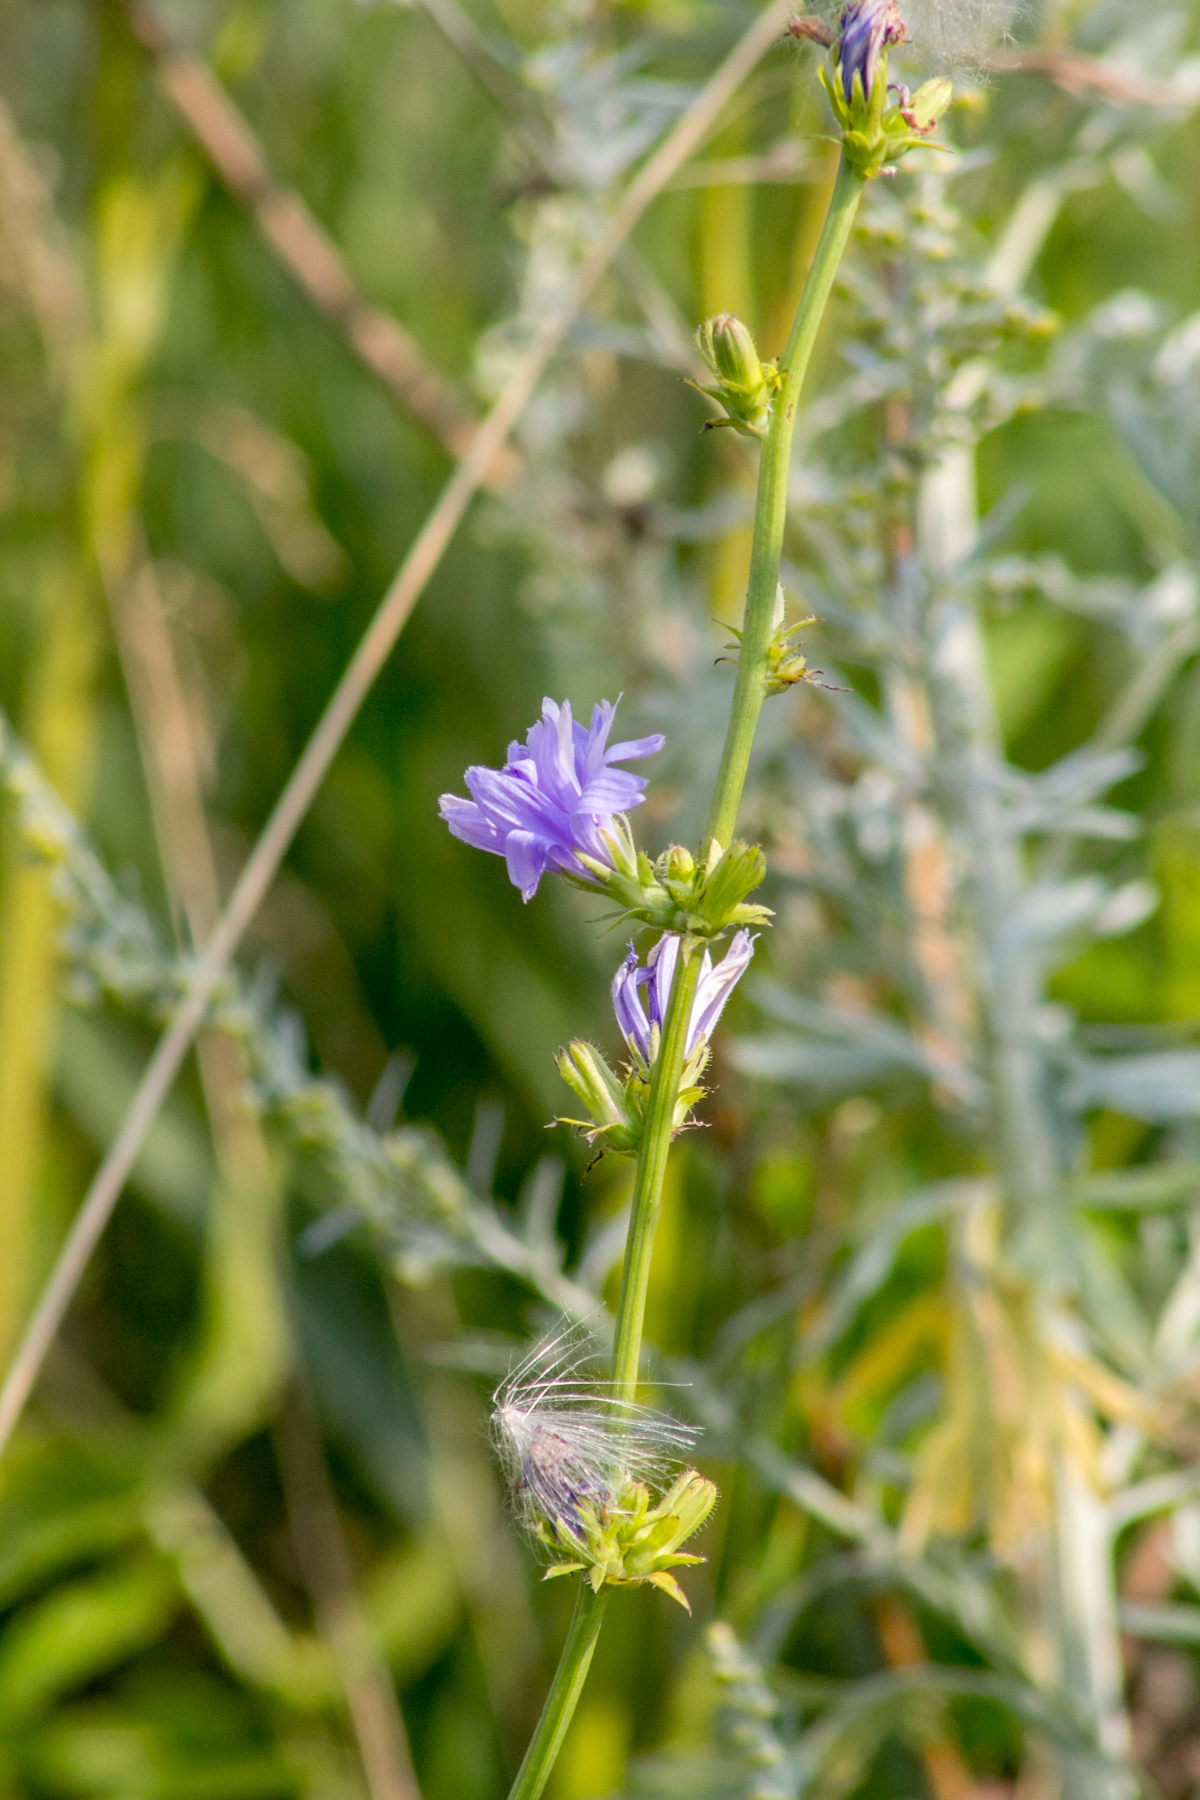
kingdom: Plantae
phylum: Tracheophyta
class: Magnoliopsida
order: Asterales
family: Asteraceae
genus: Cichorium
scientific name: Cichorium intybus
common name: Chicory
